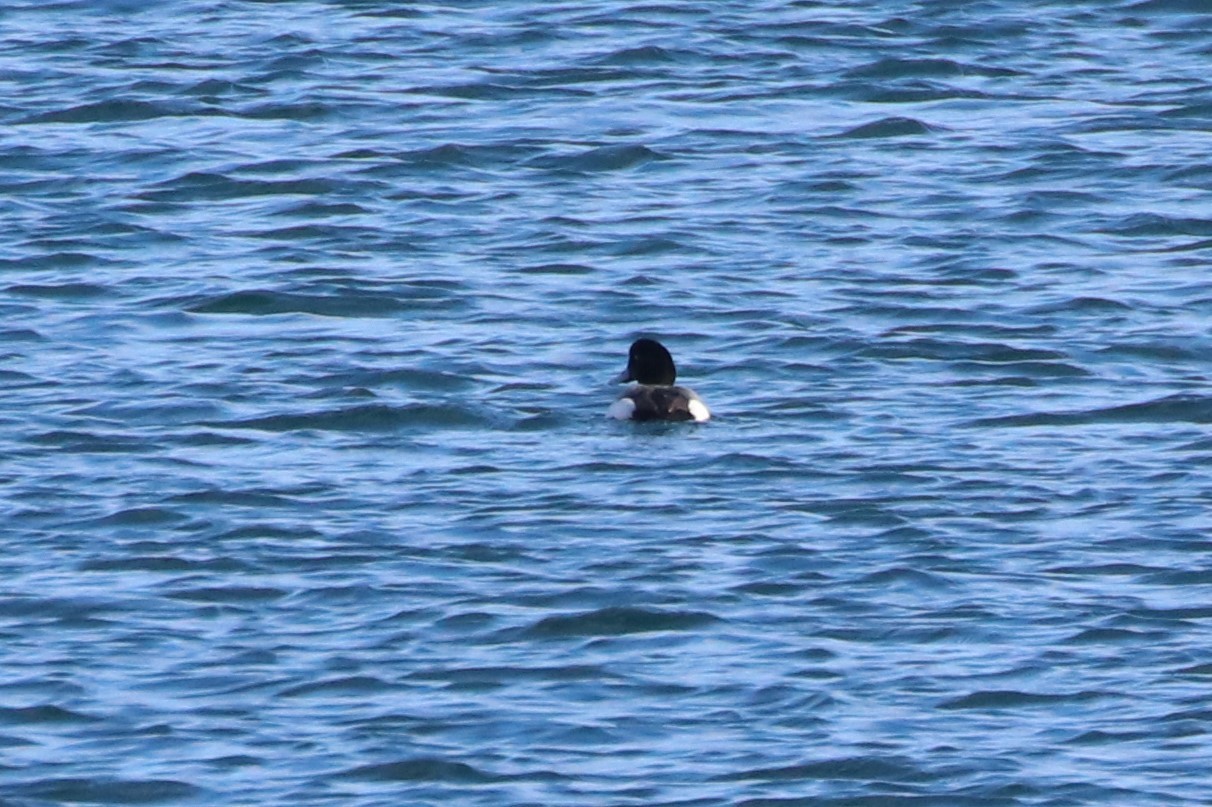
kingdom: Animalia
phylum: Chordata
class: Aves
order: Anseriformes
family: Anatidae
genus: Aythya
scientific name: Aythya marila
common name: Greater scaup
